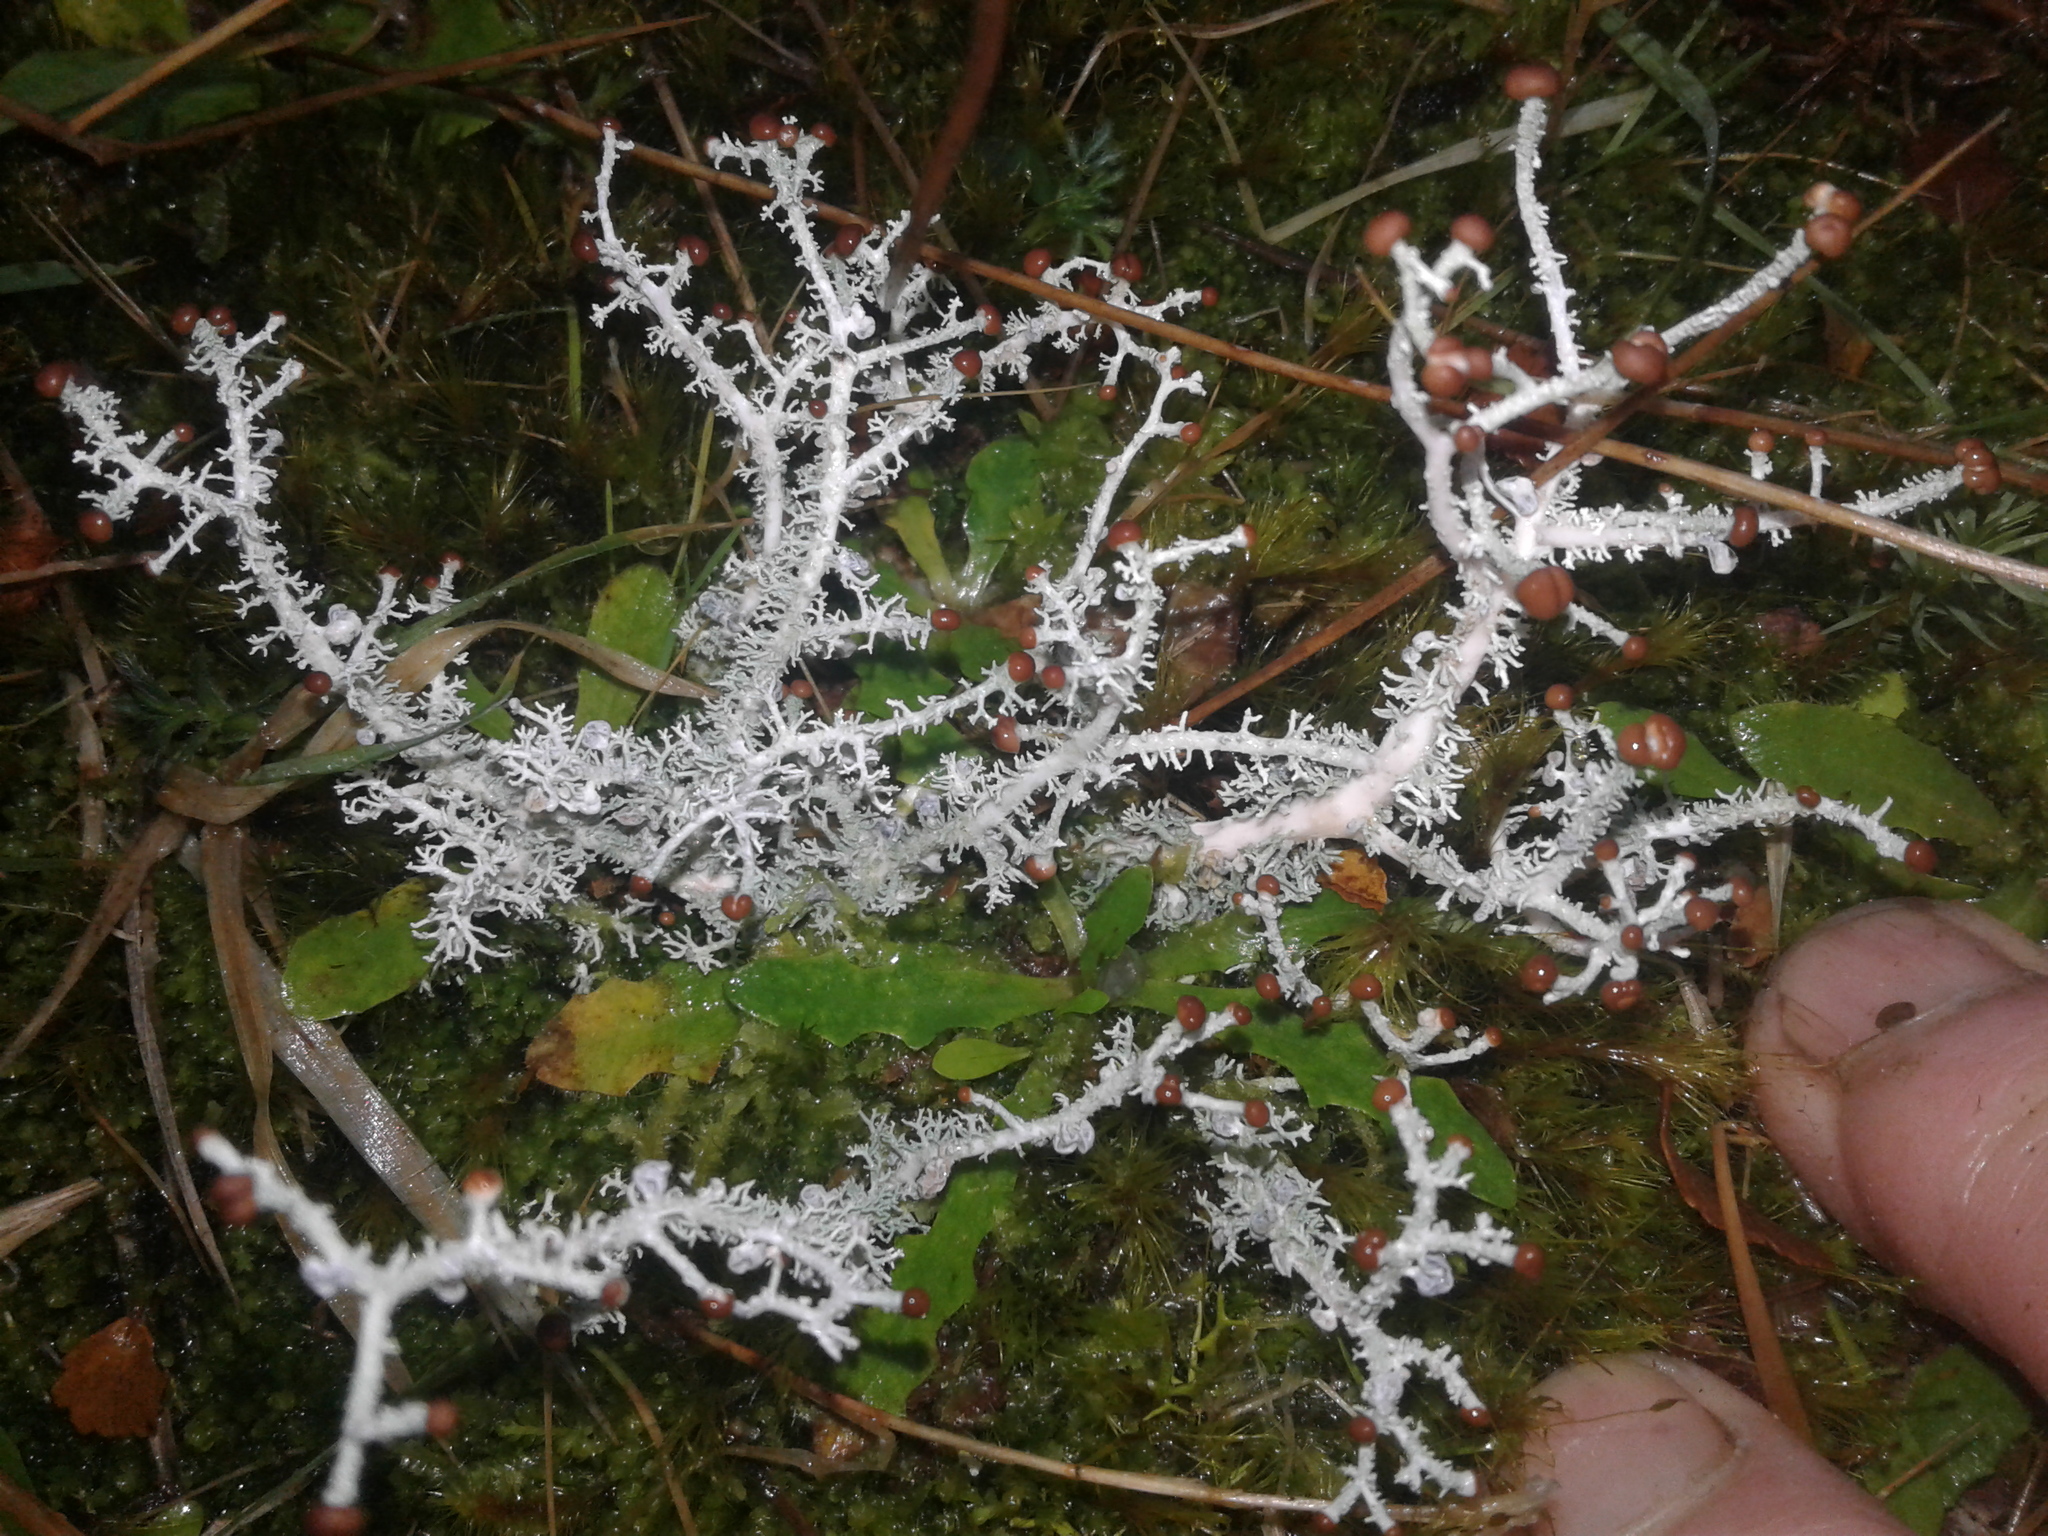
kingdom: Fungi
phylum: Ascomycota
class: Lecanoromycetes
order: Lecanorales
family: Stereocaulaceae
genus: Stereocaulon
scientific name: Stereocaulon ramulosum
